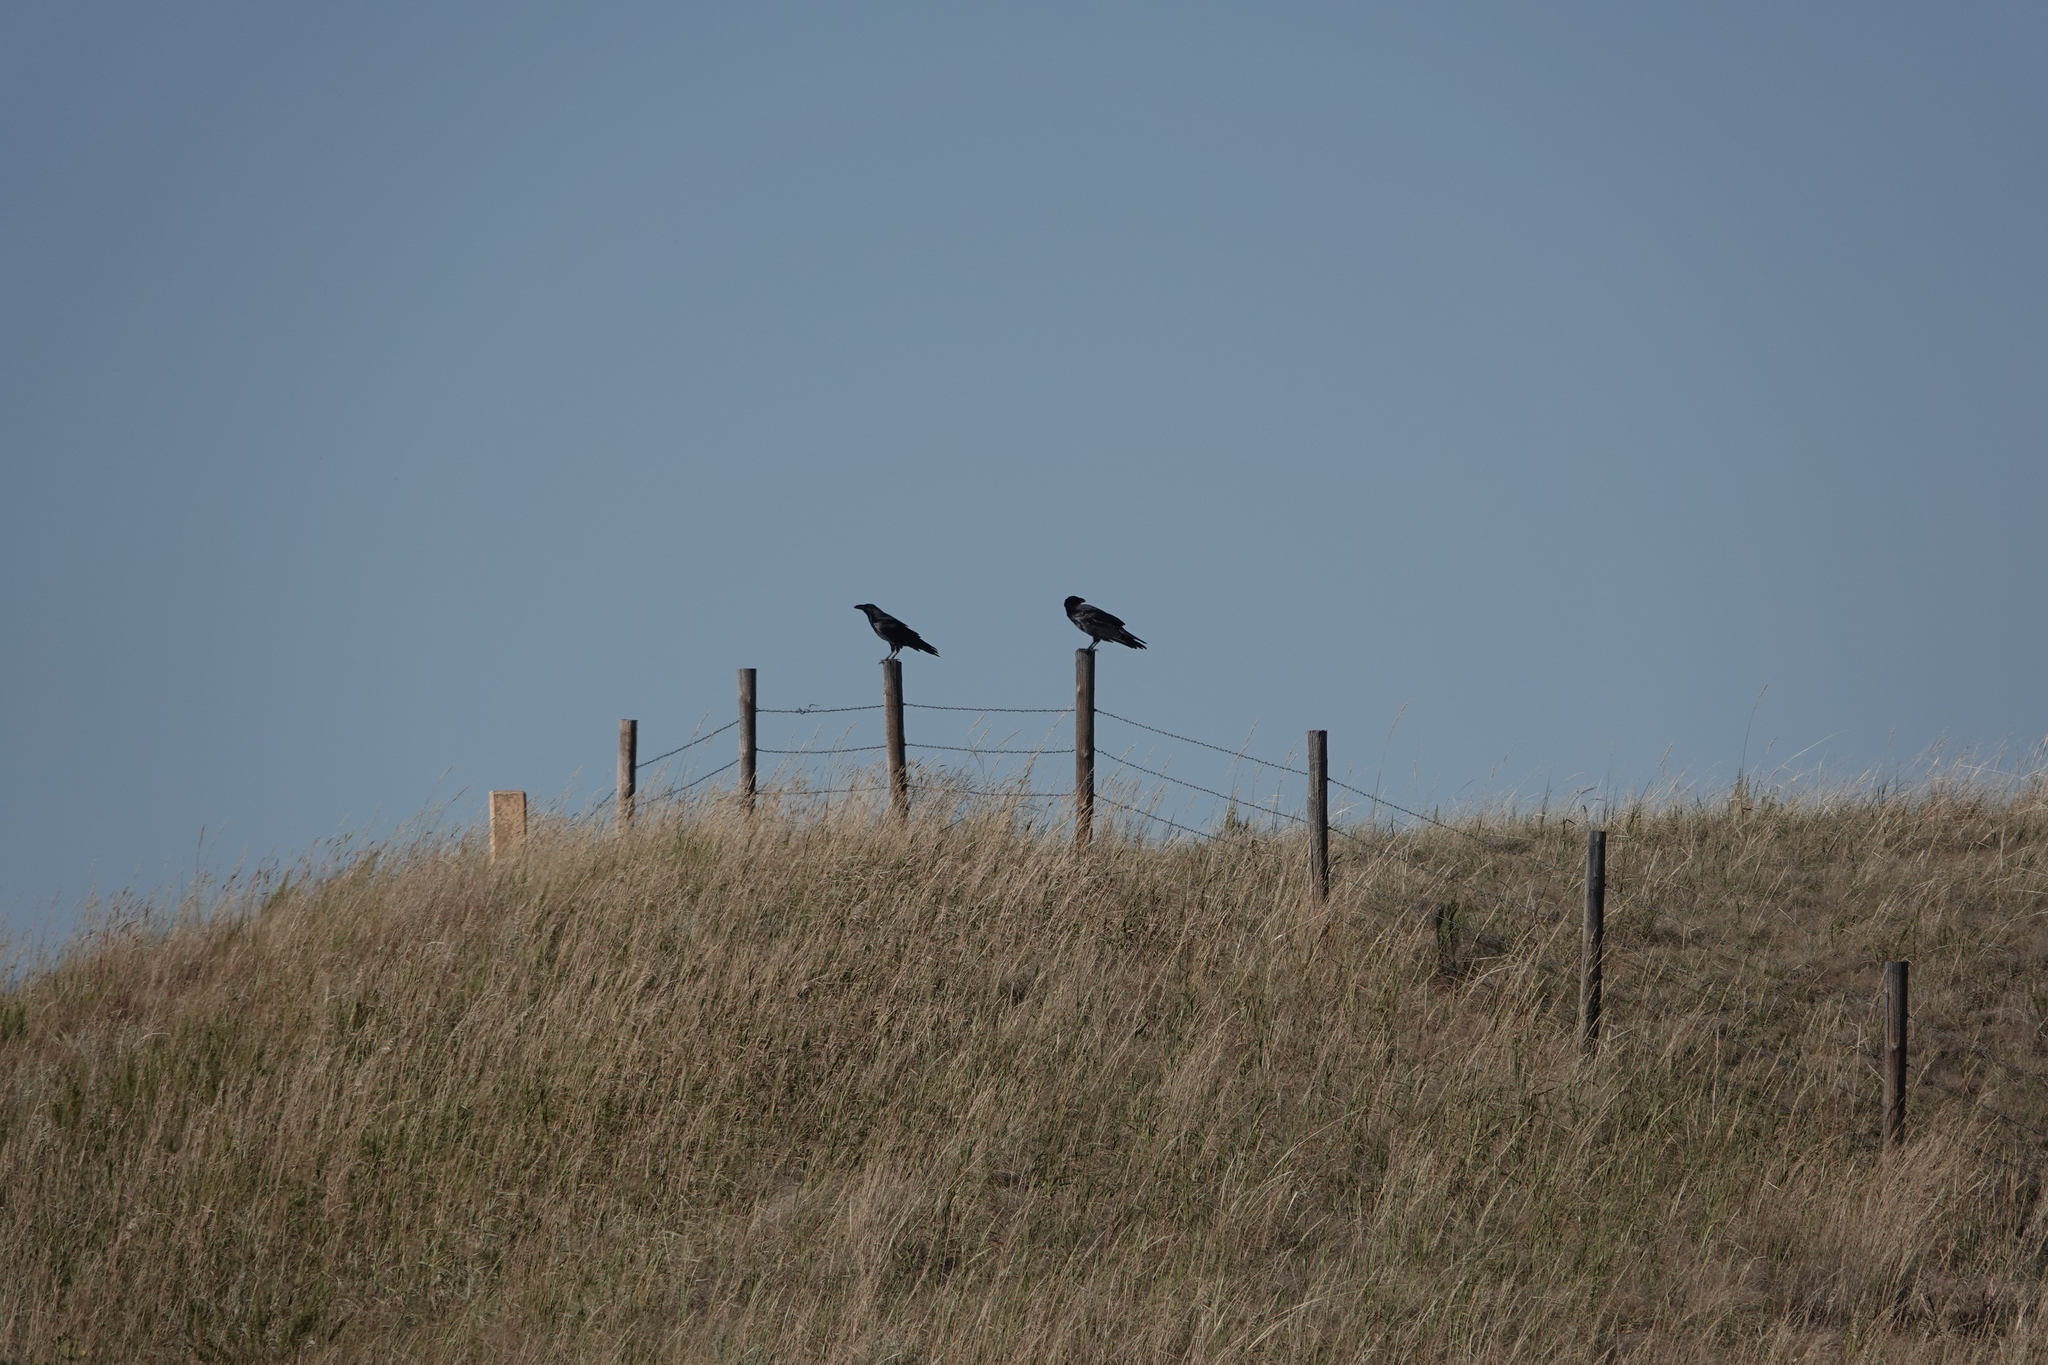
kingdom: Animalia
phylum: Chordata
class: Aves
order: Passeriformes
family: Corvidae
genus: Corvus
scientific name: Corvus corax
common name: Common raven
